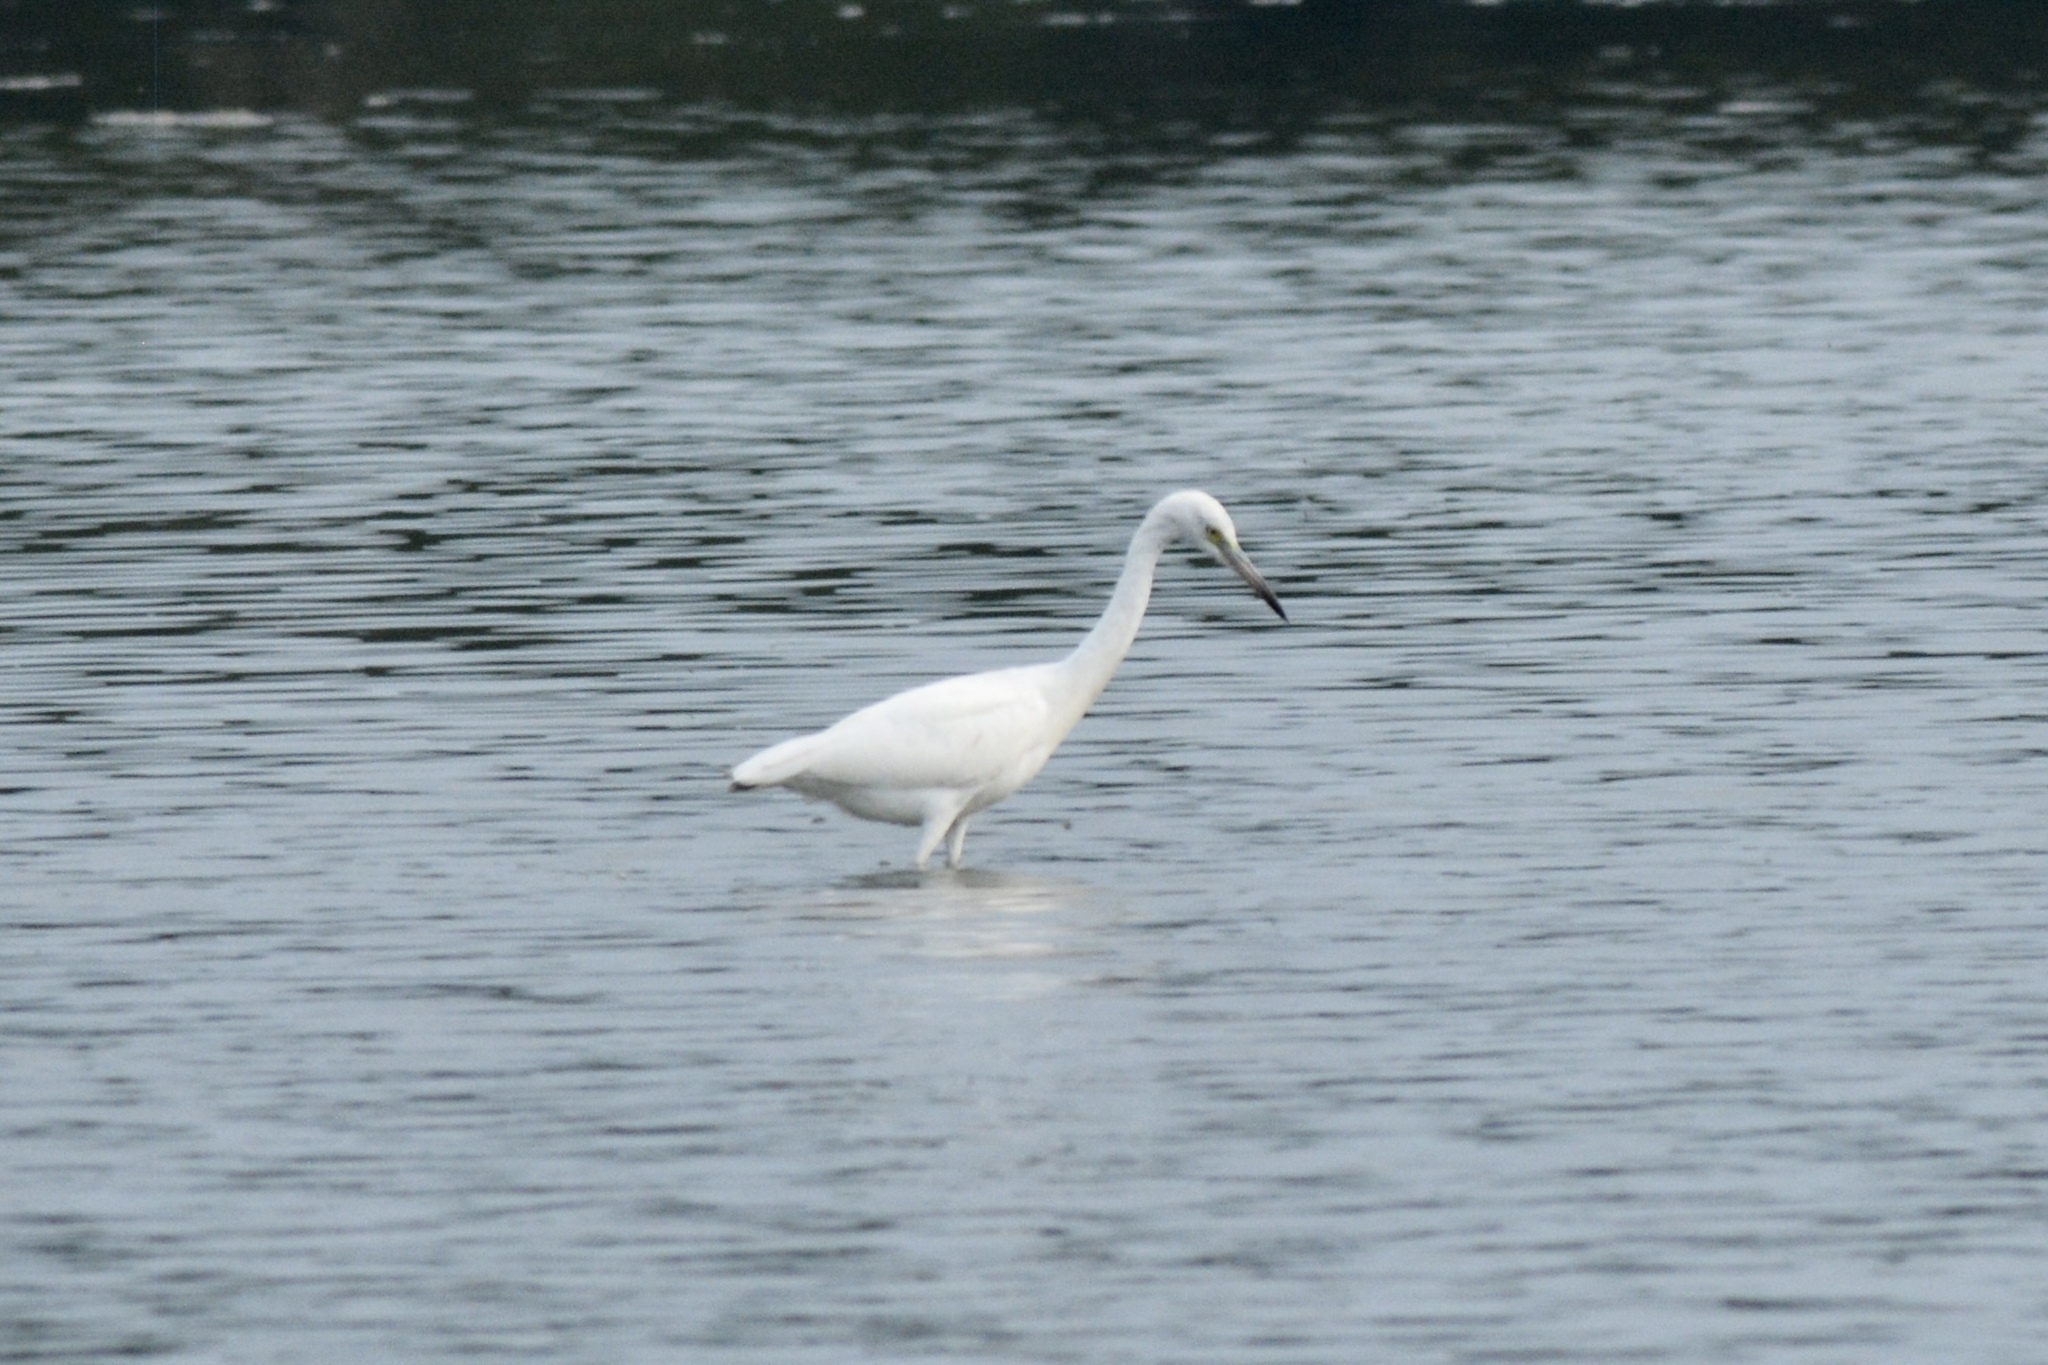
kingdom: Animalia
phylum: Chordata
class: Aves
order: Pelecaniformes
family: Ardeidae
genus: Egretta
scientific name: Egretta caerulea
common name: Little blue heron
